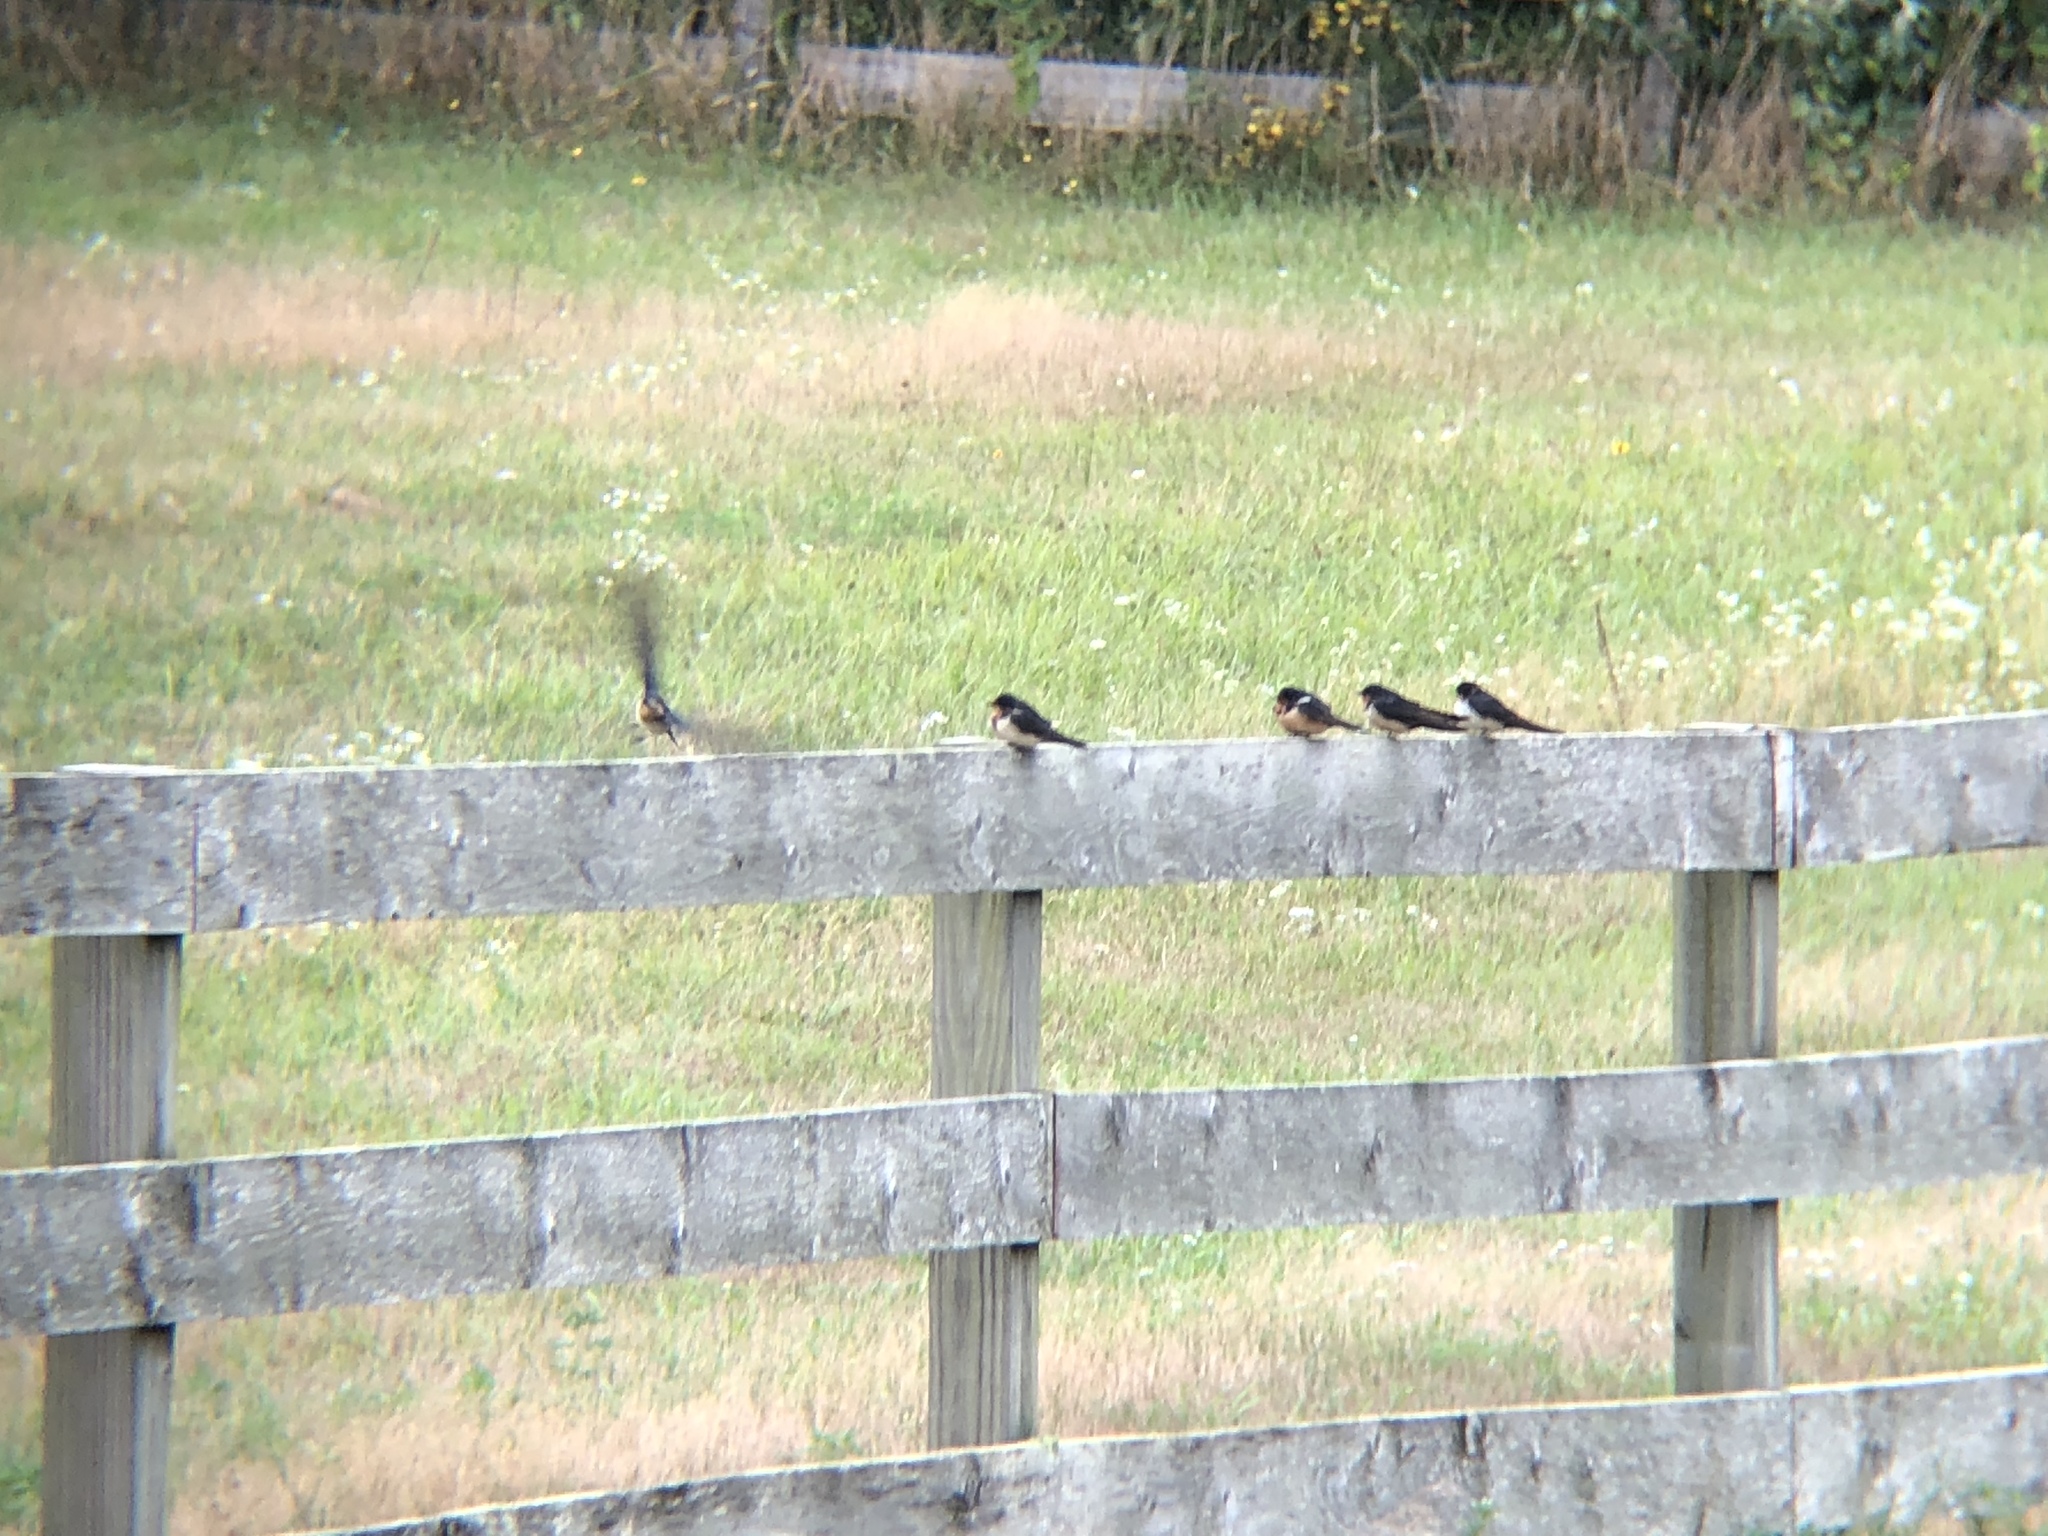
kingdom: Animalia
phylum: Chordata
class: Aves
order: Passeriformes
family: Hirundinidae
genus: Hirundo
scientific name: Hirundo rustica
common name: Barn swallow
